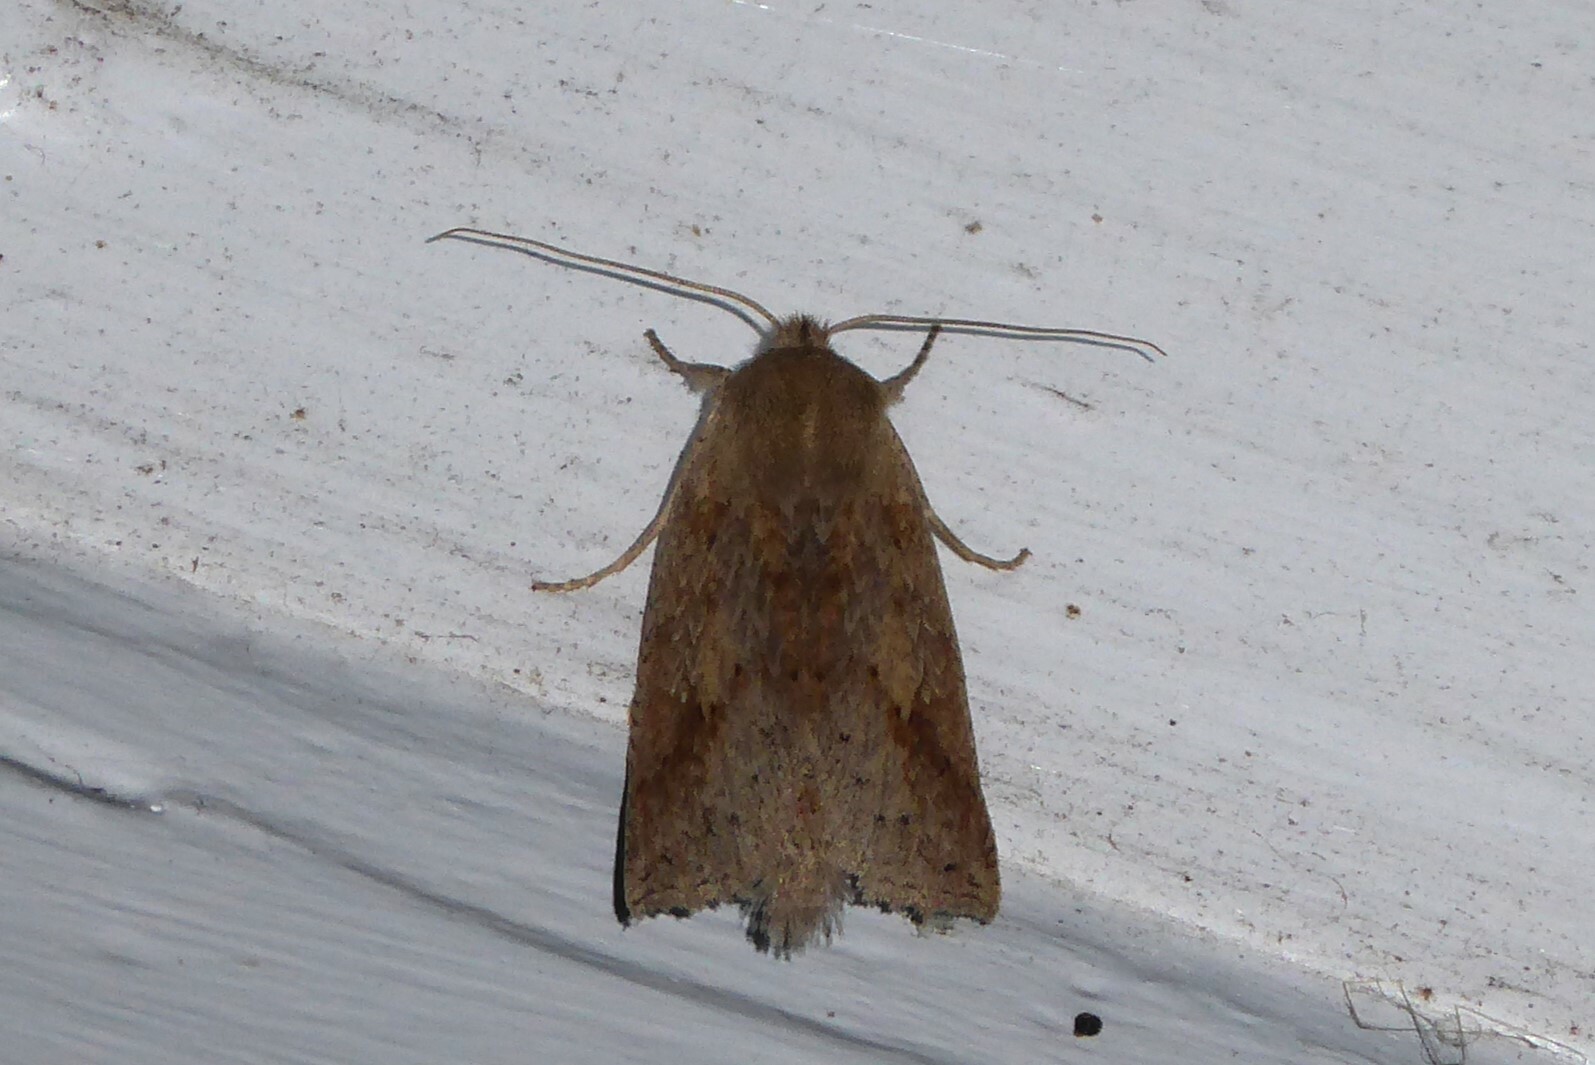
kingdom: Animalia
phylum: Arthropoda
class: Insecta
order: Lepidoptera
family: Geometridae
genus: Declana
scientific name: Declana leptomera
